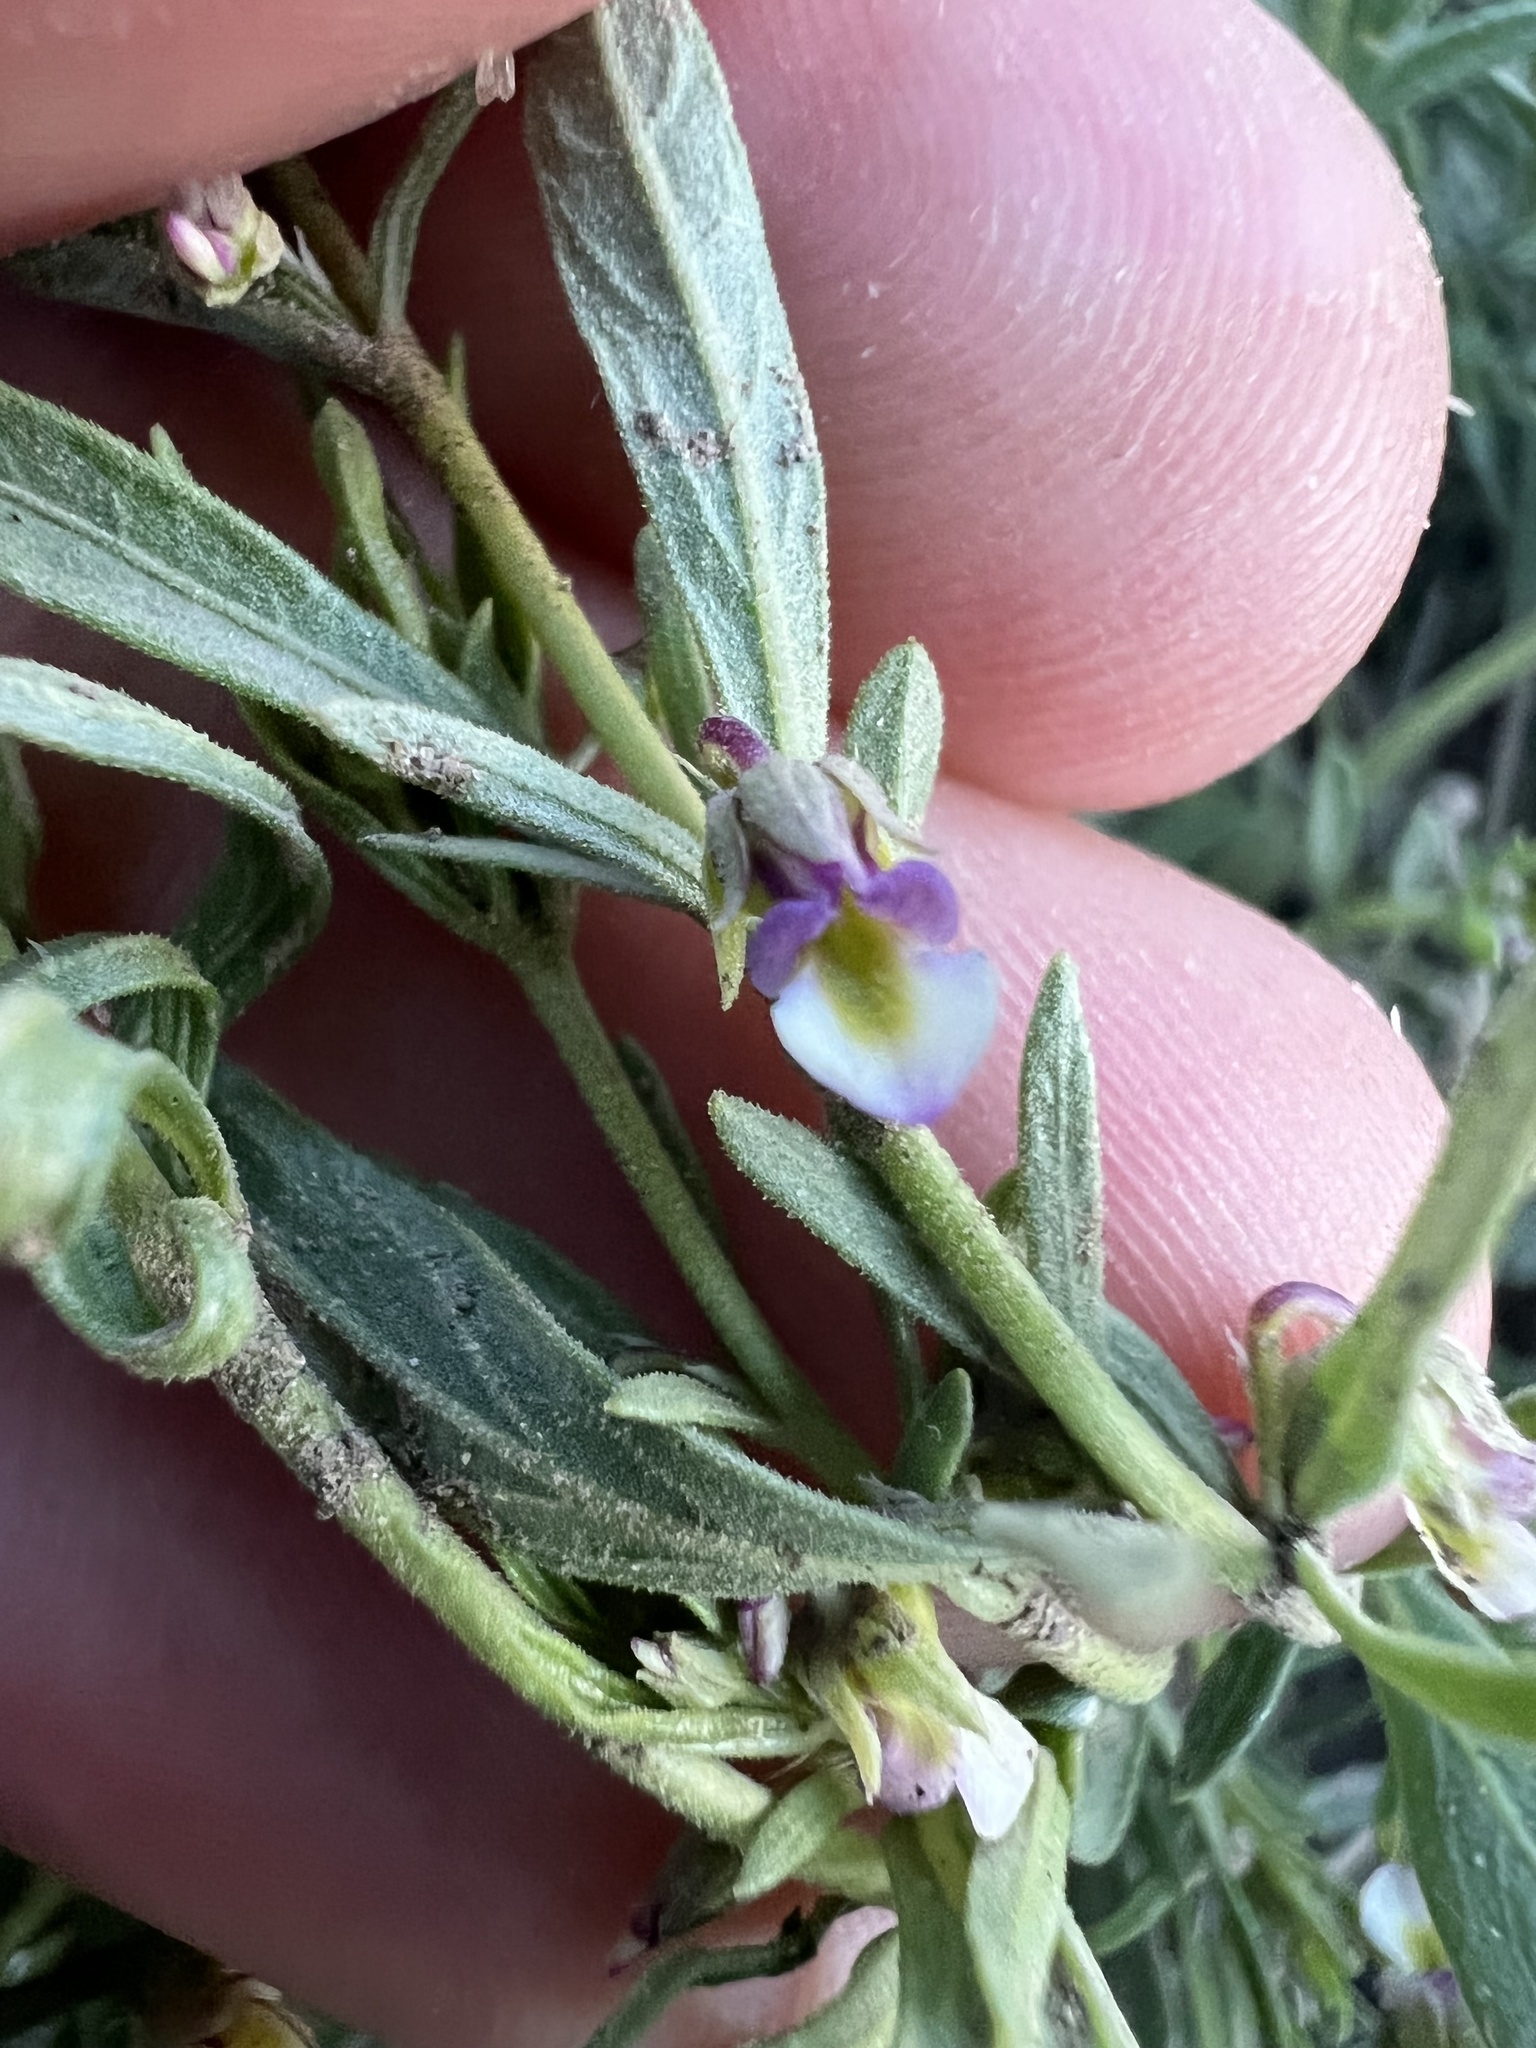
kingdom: Plantae
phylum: Tracheophyta
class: Magnoliopsida
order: Malpighiales
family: Violaceae
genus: Pombalia
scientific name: Pombalia verticillata
